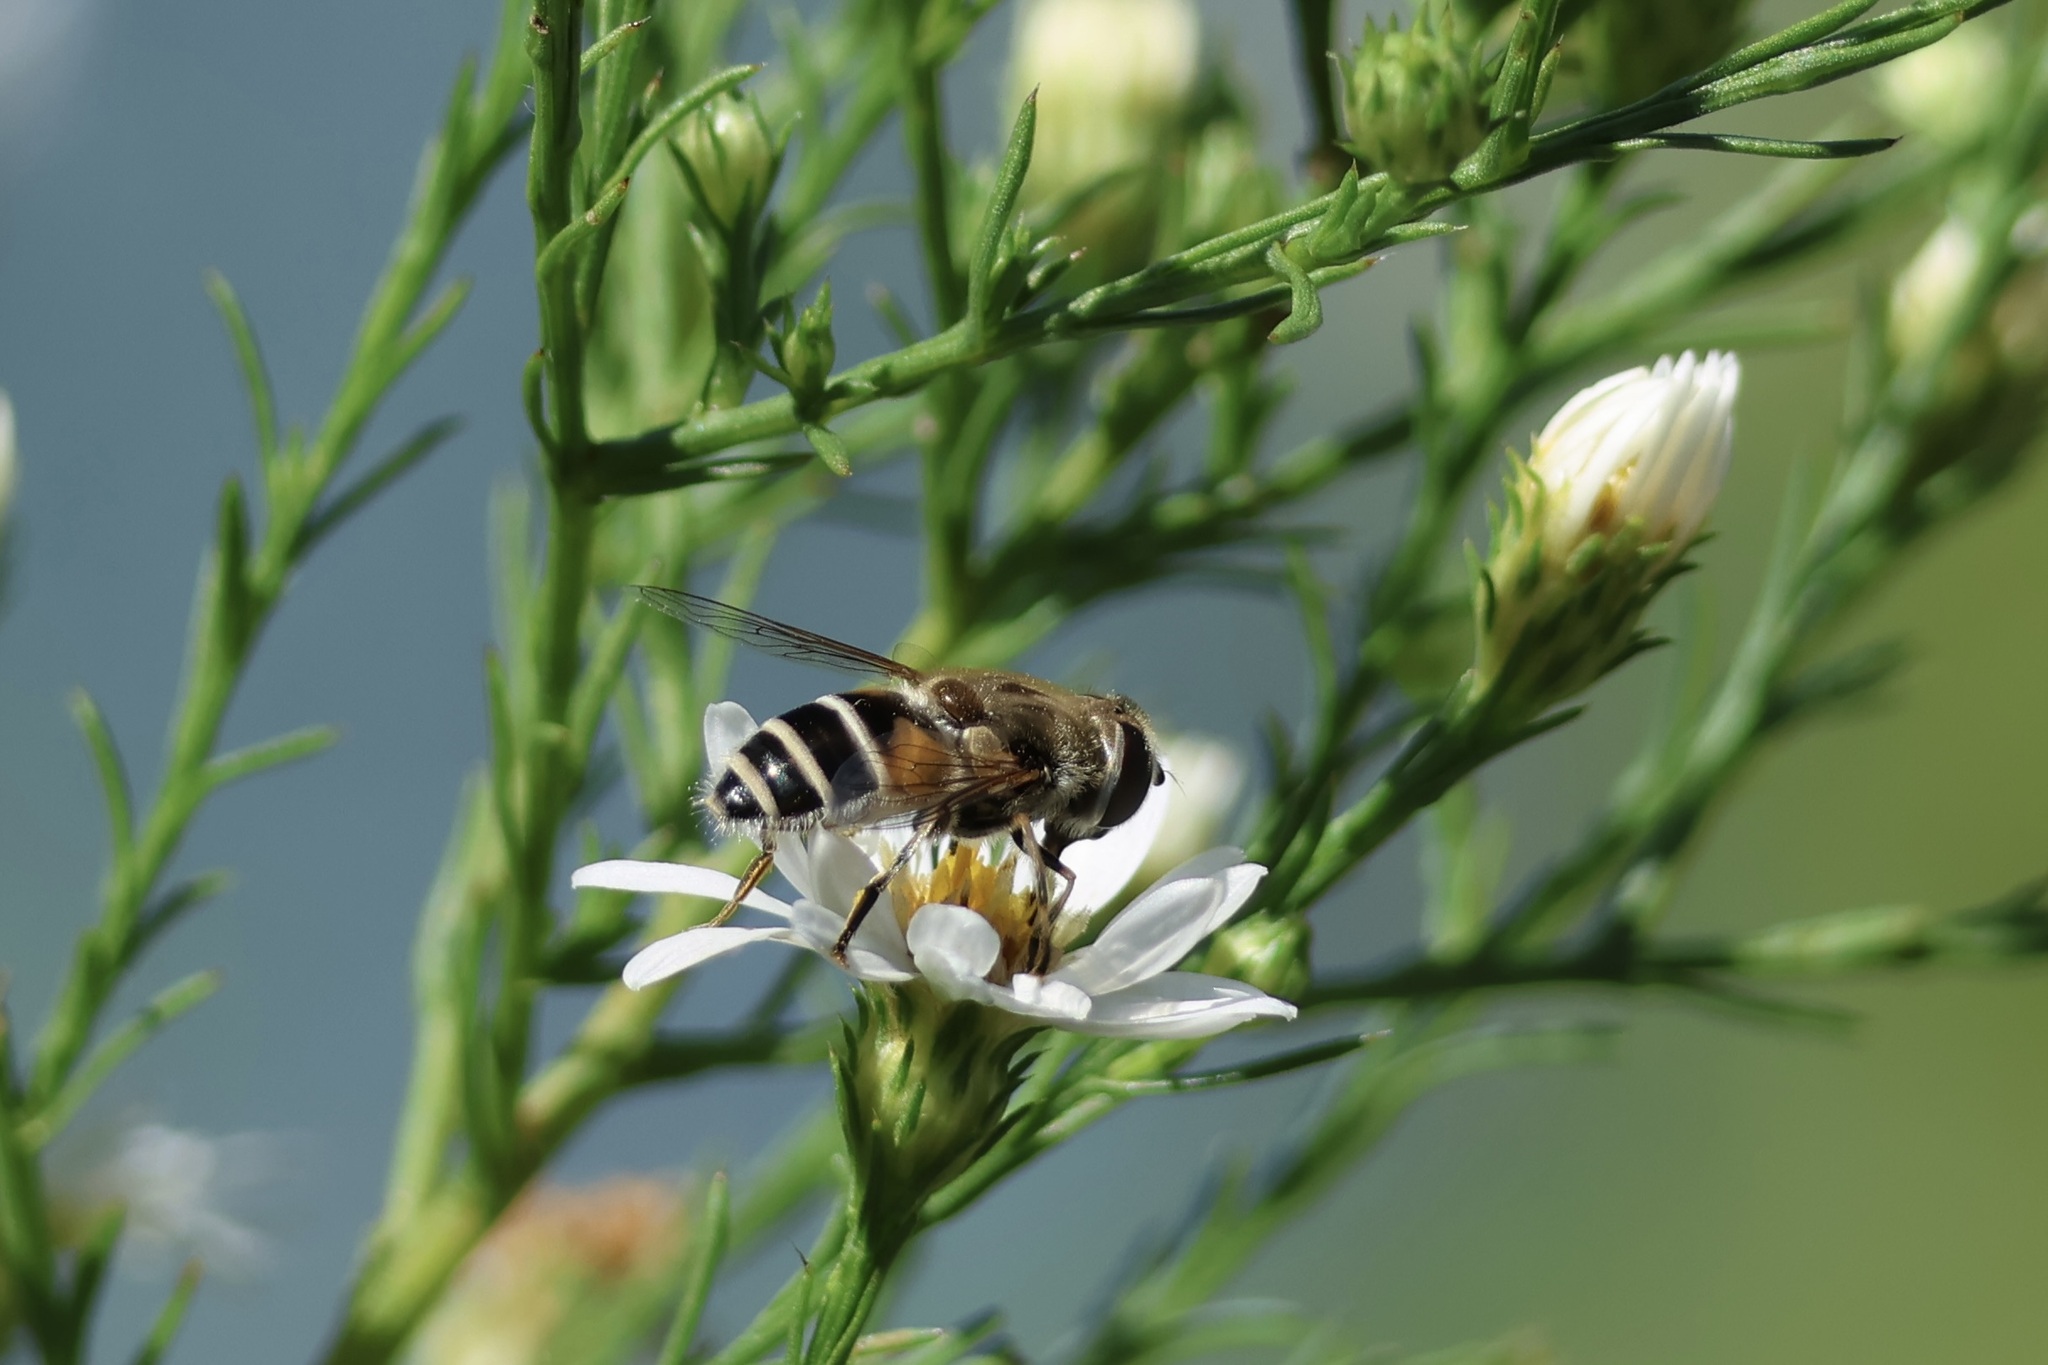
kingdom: Animalia
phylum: Arthropoda
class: Insecta
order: Diptera
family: Syrphidae
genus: Eristalis
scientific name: Eristalis arbustorum
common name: Hover fly
